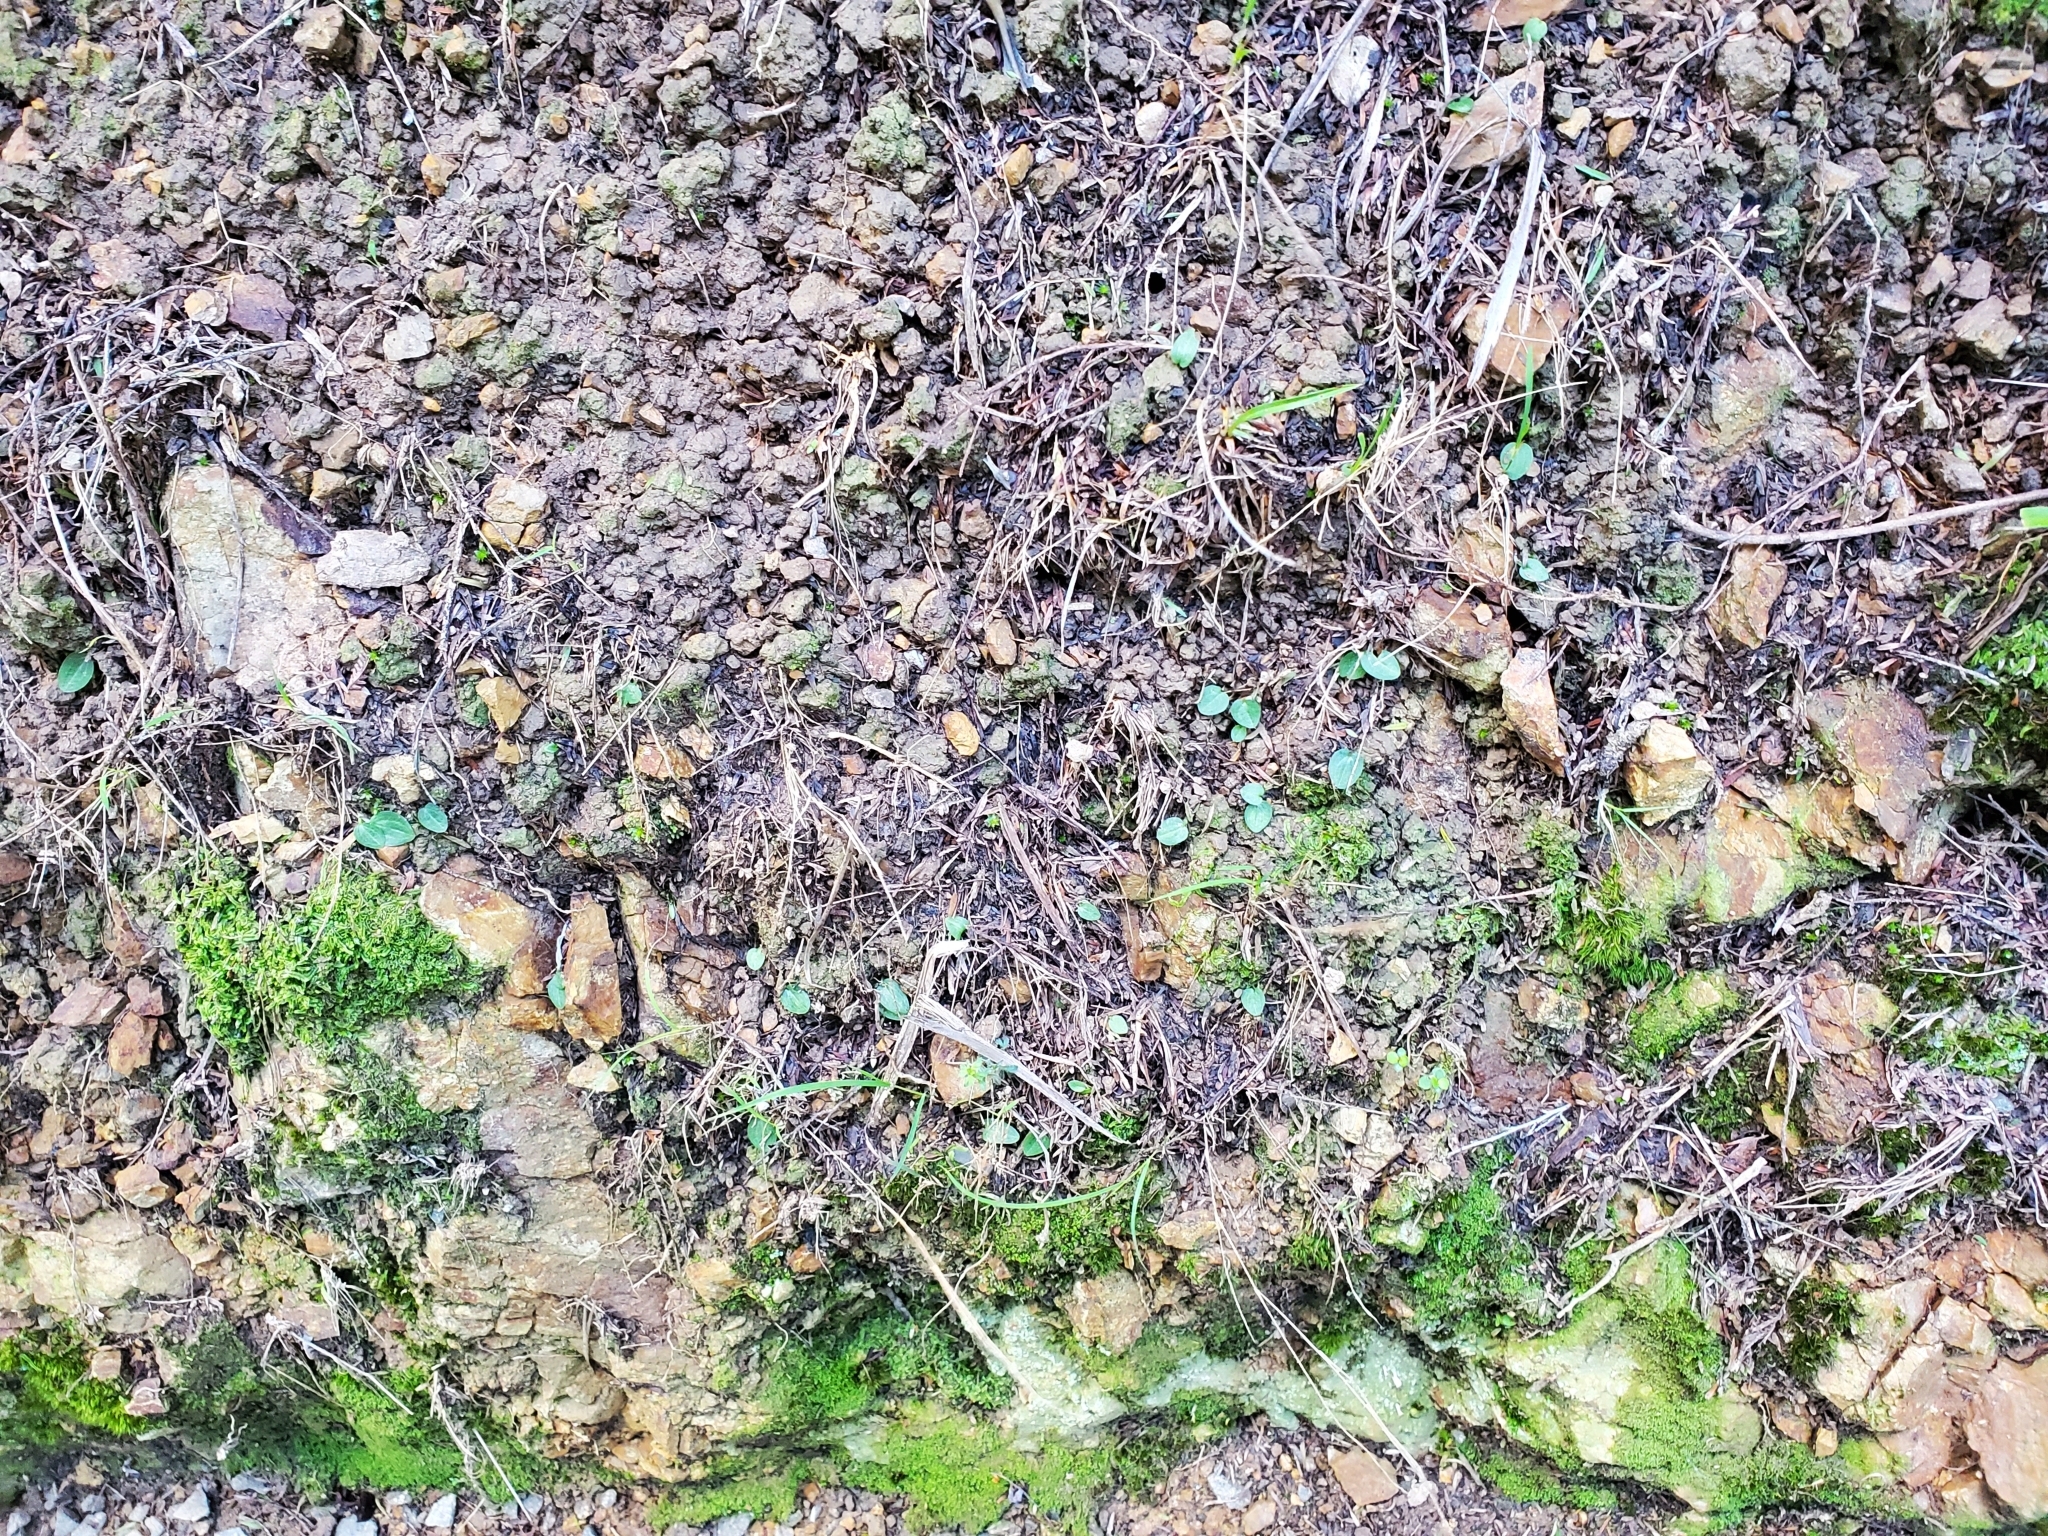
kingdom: Plantae
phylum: Tracheophyta
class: Liliopsida
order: Asparagales
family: Orchidaceae
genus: Cyrtostylis
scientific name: Cyrtostylis rotundifolia
